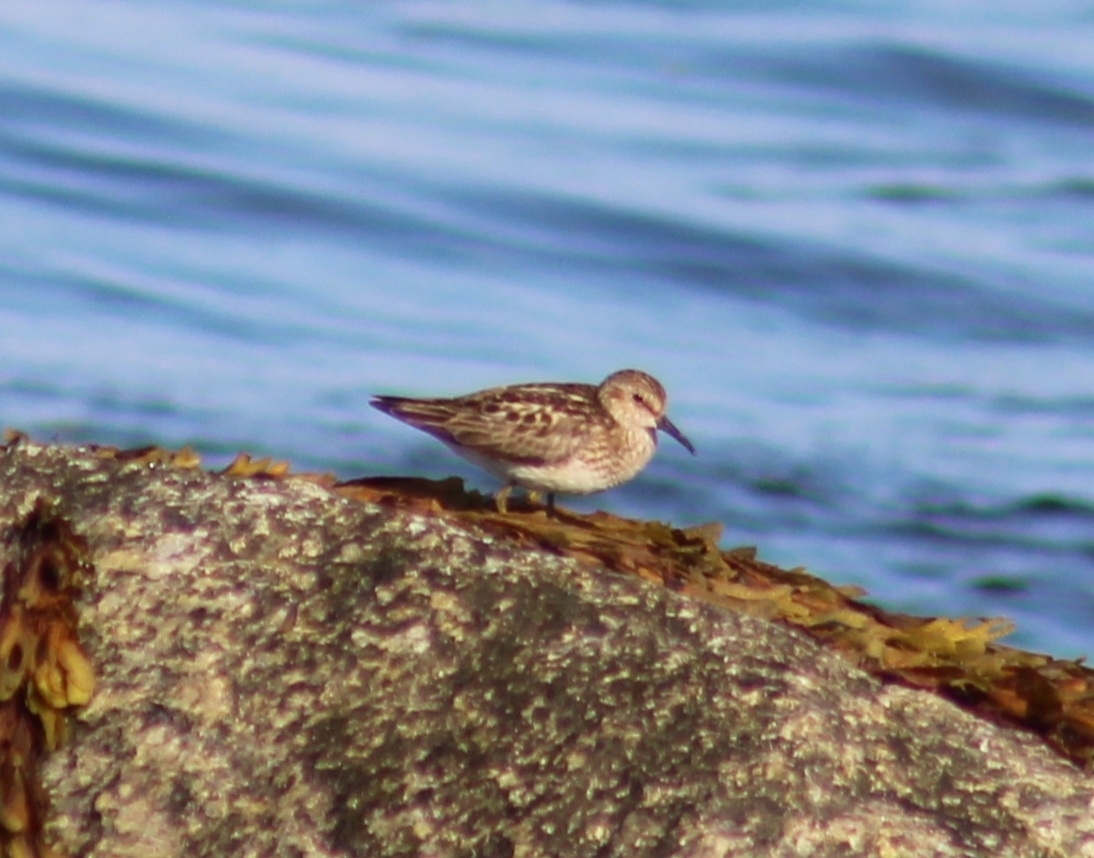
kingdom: Animalia
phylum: Chordata
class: Aves
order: Charadriiformes
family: Scolopacidae
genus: Calidris
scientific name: Calidris minutilla
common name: Least sandpiper
